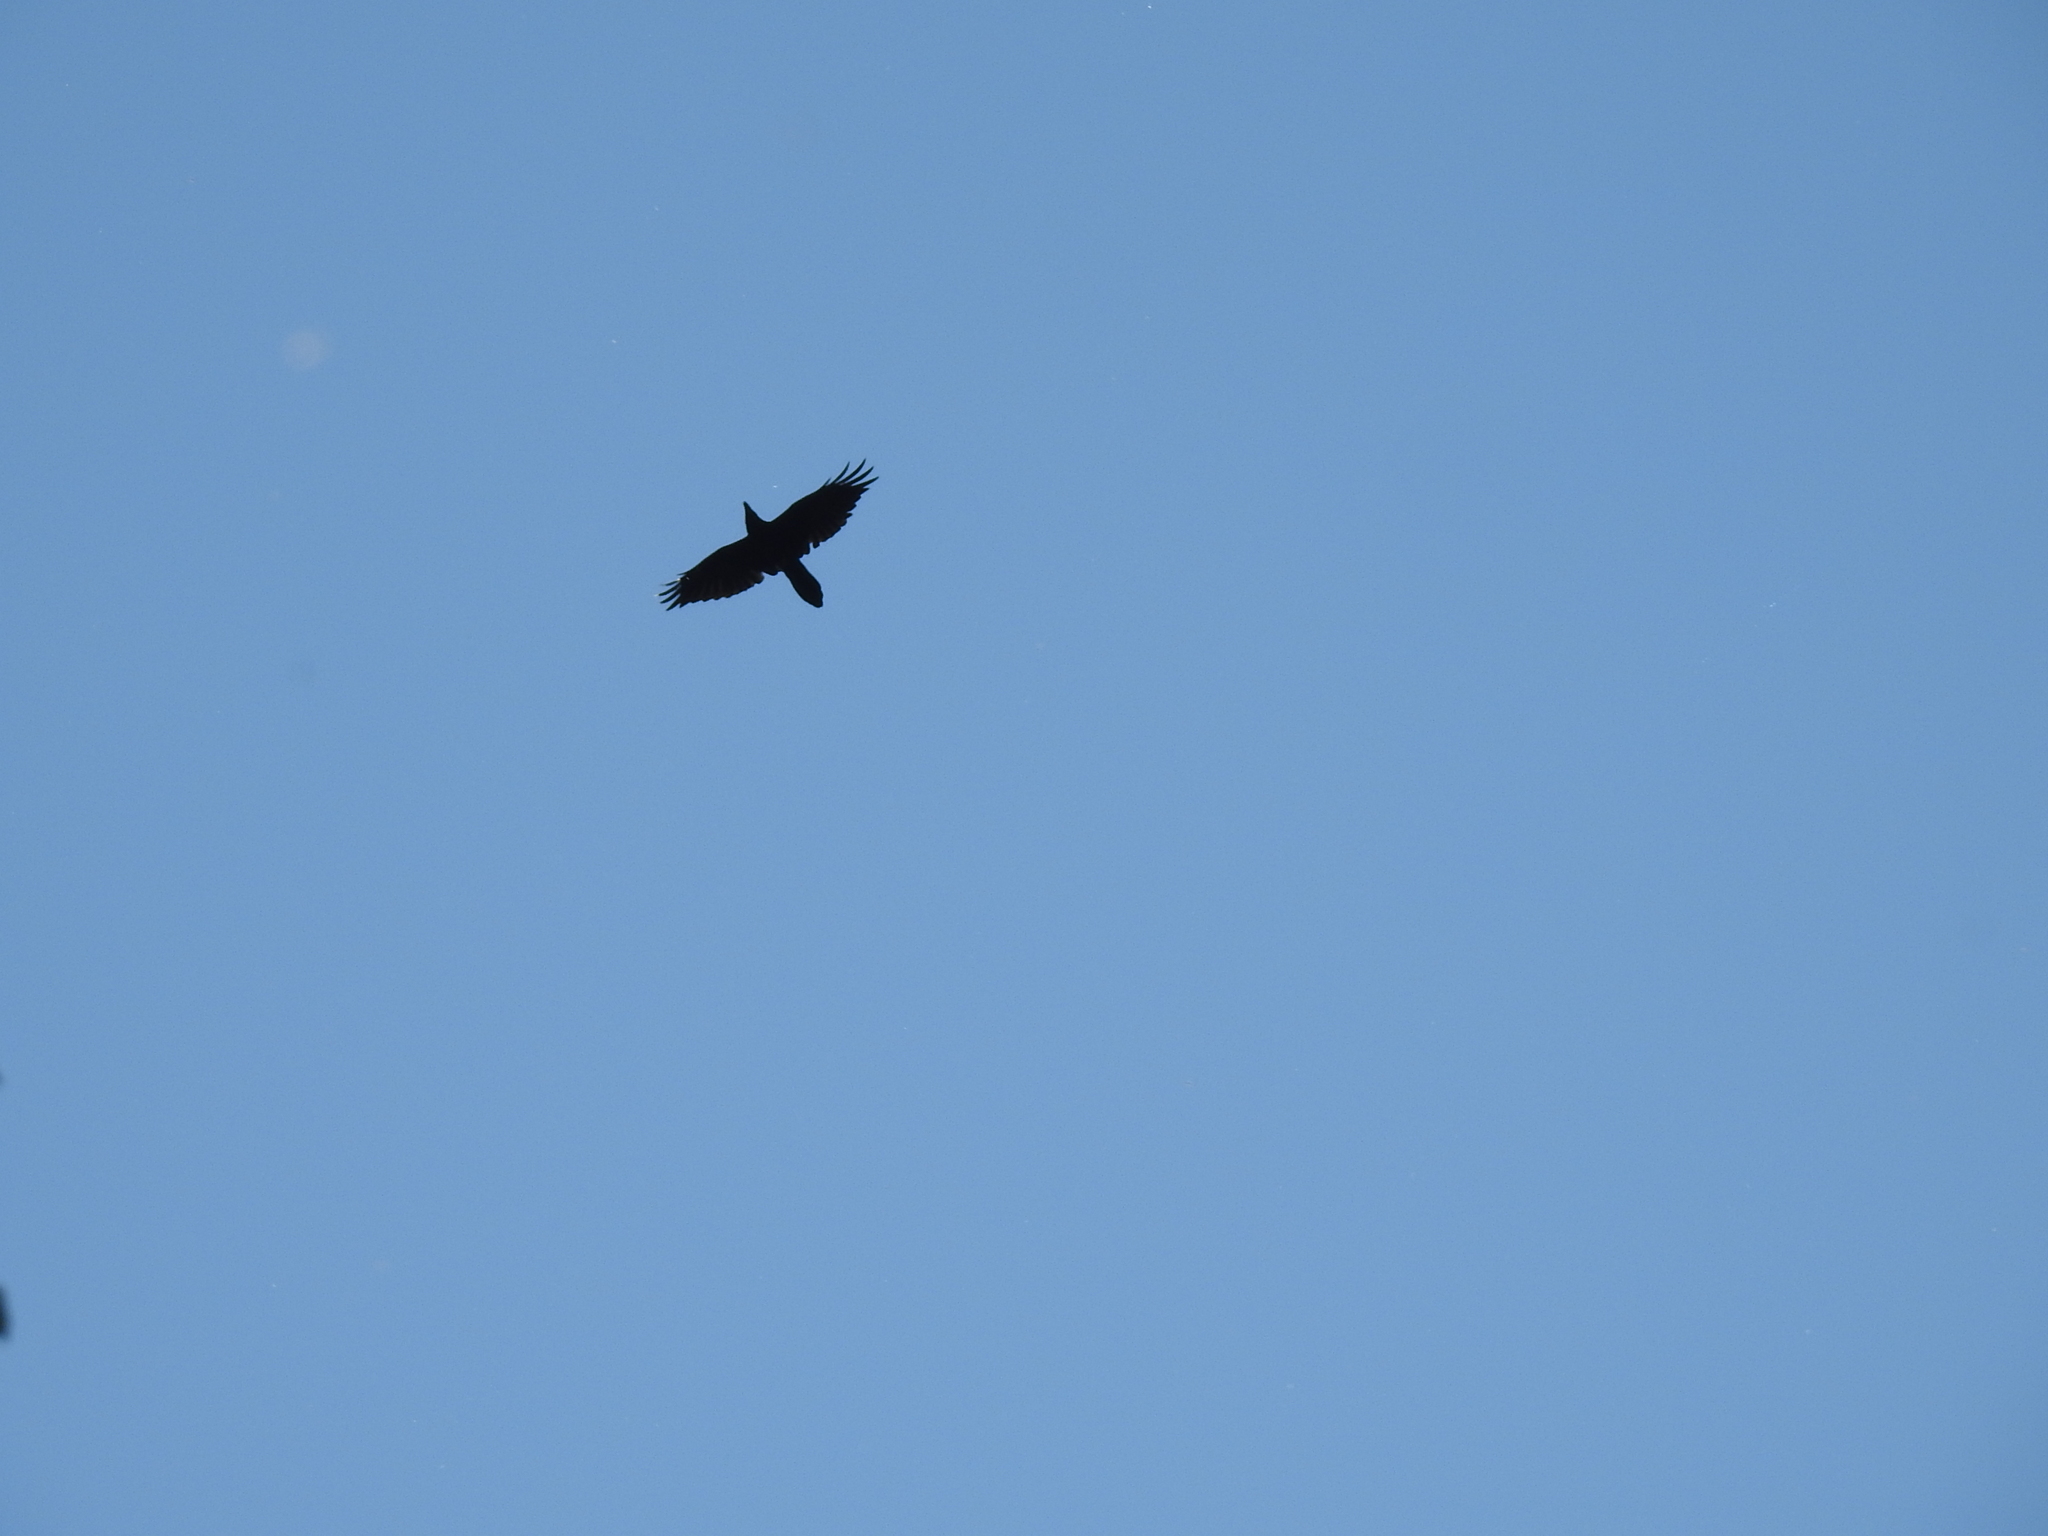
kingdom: Animalia
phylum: Chordata
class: Aves
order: Passeriformes
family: Corvidae
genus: Corvus
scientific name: Corvus corax
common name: Common raven
